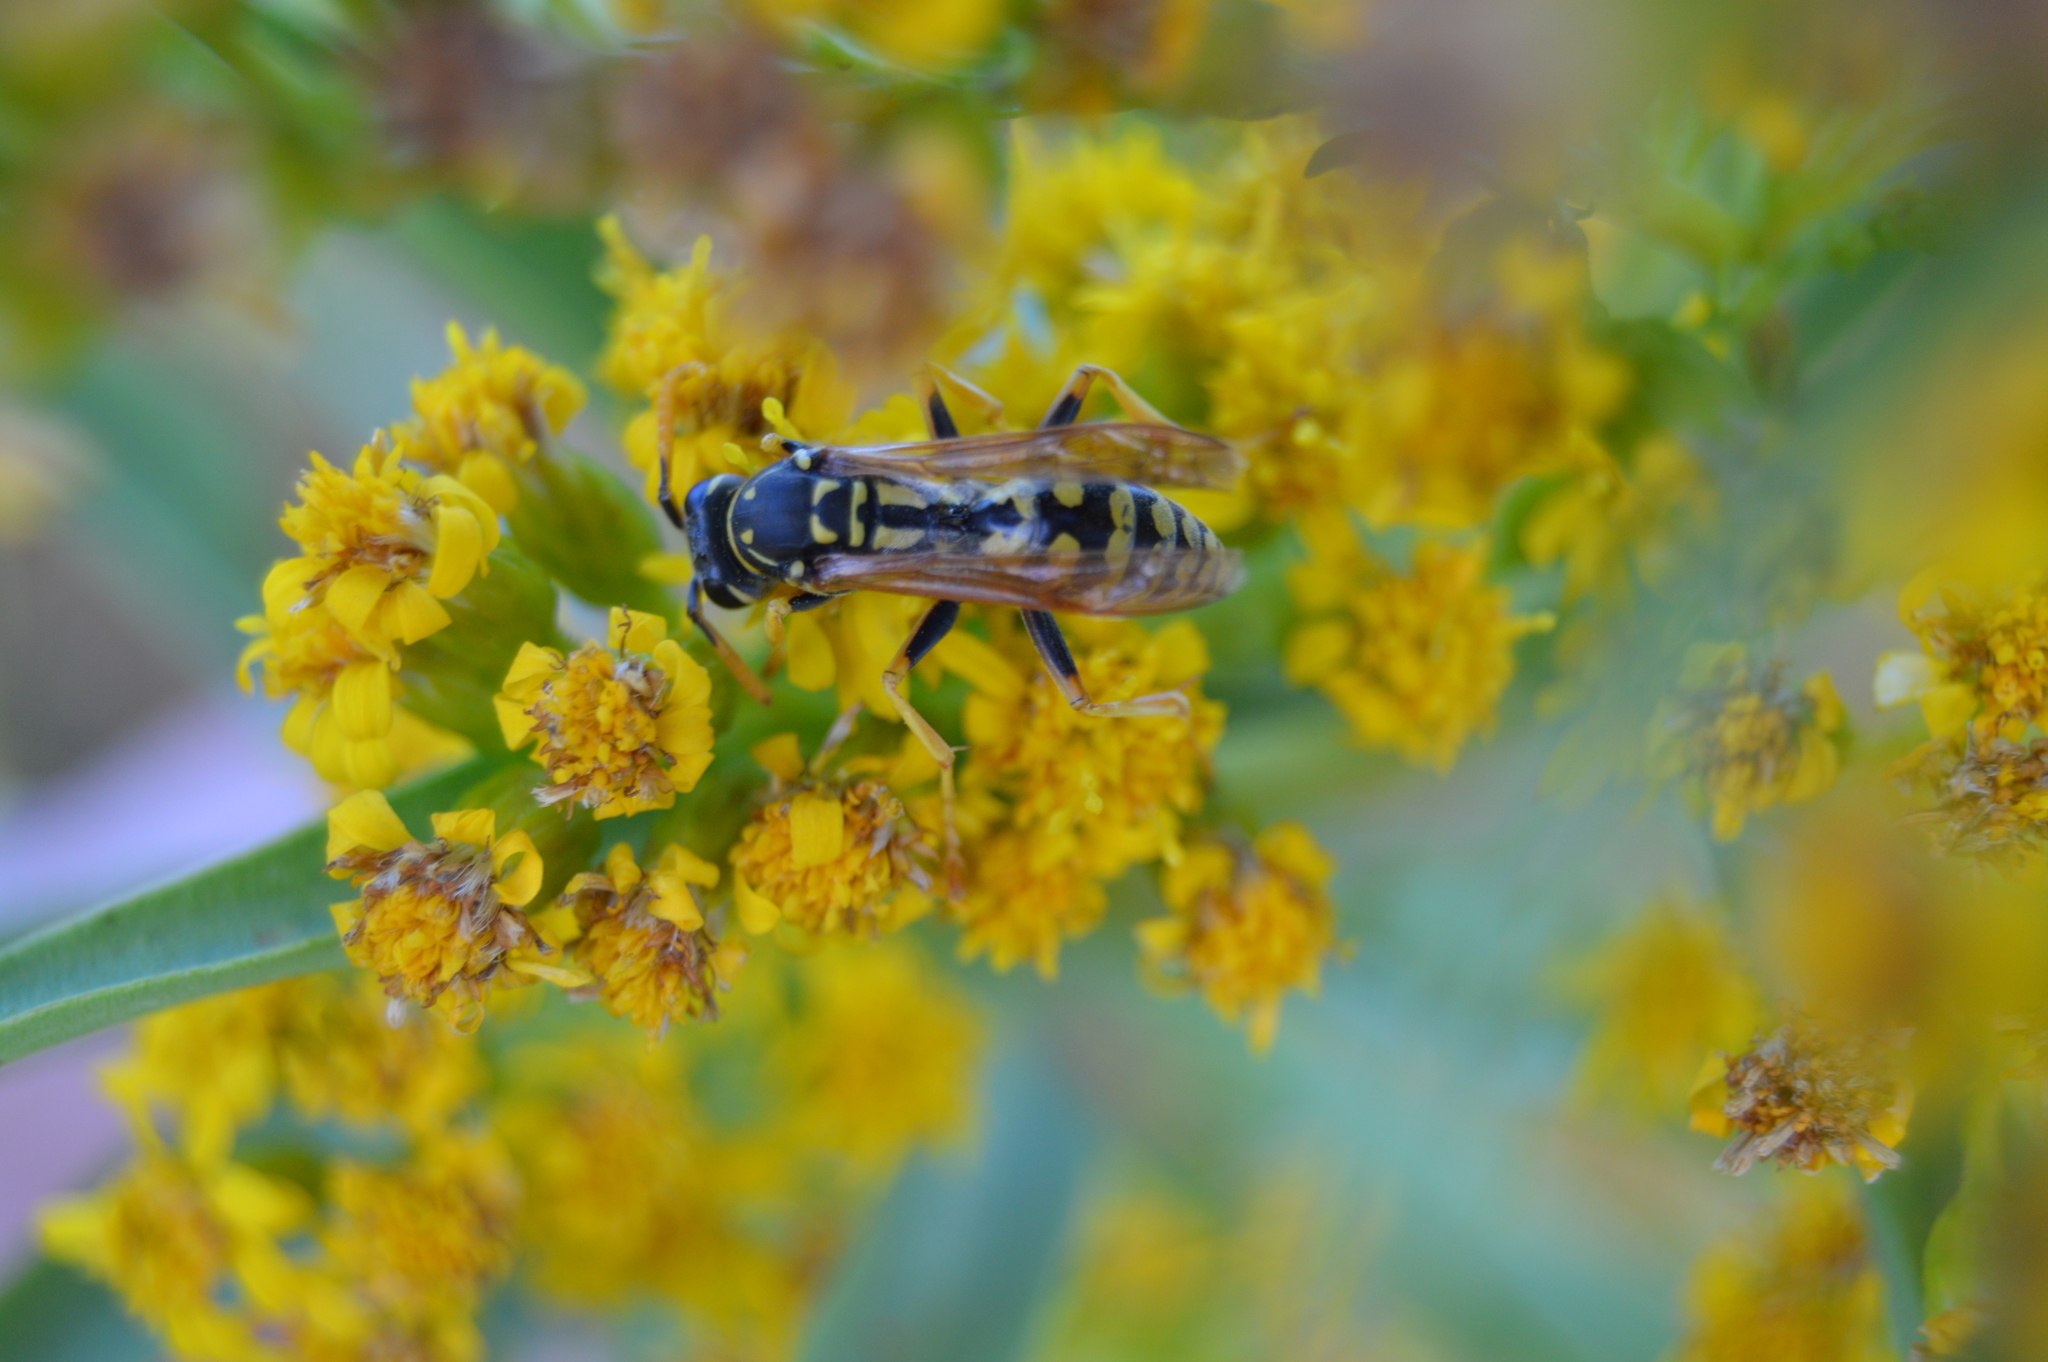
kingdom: Animalia
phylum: Arthropoda
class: Insecta
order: Hymenoptera
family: Eumenidae
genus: Polistes
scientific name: Polistes dominula
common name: Paper wasp
